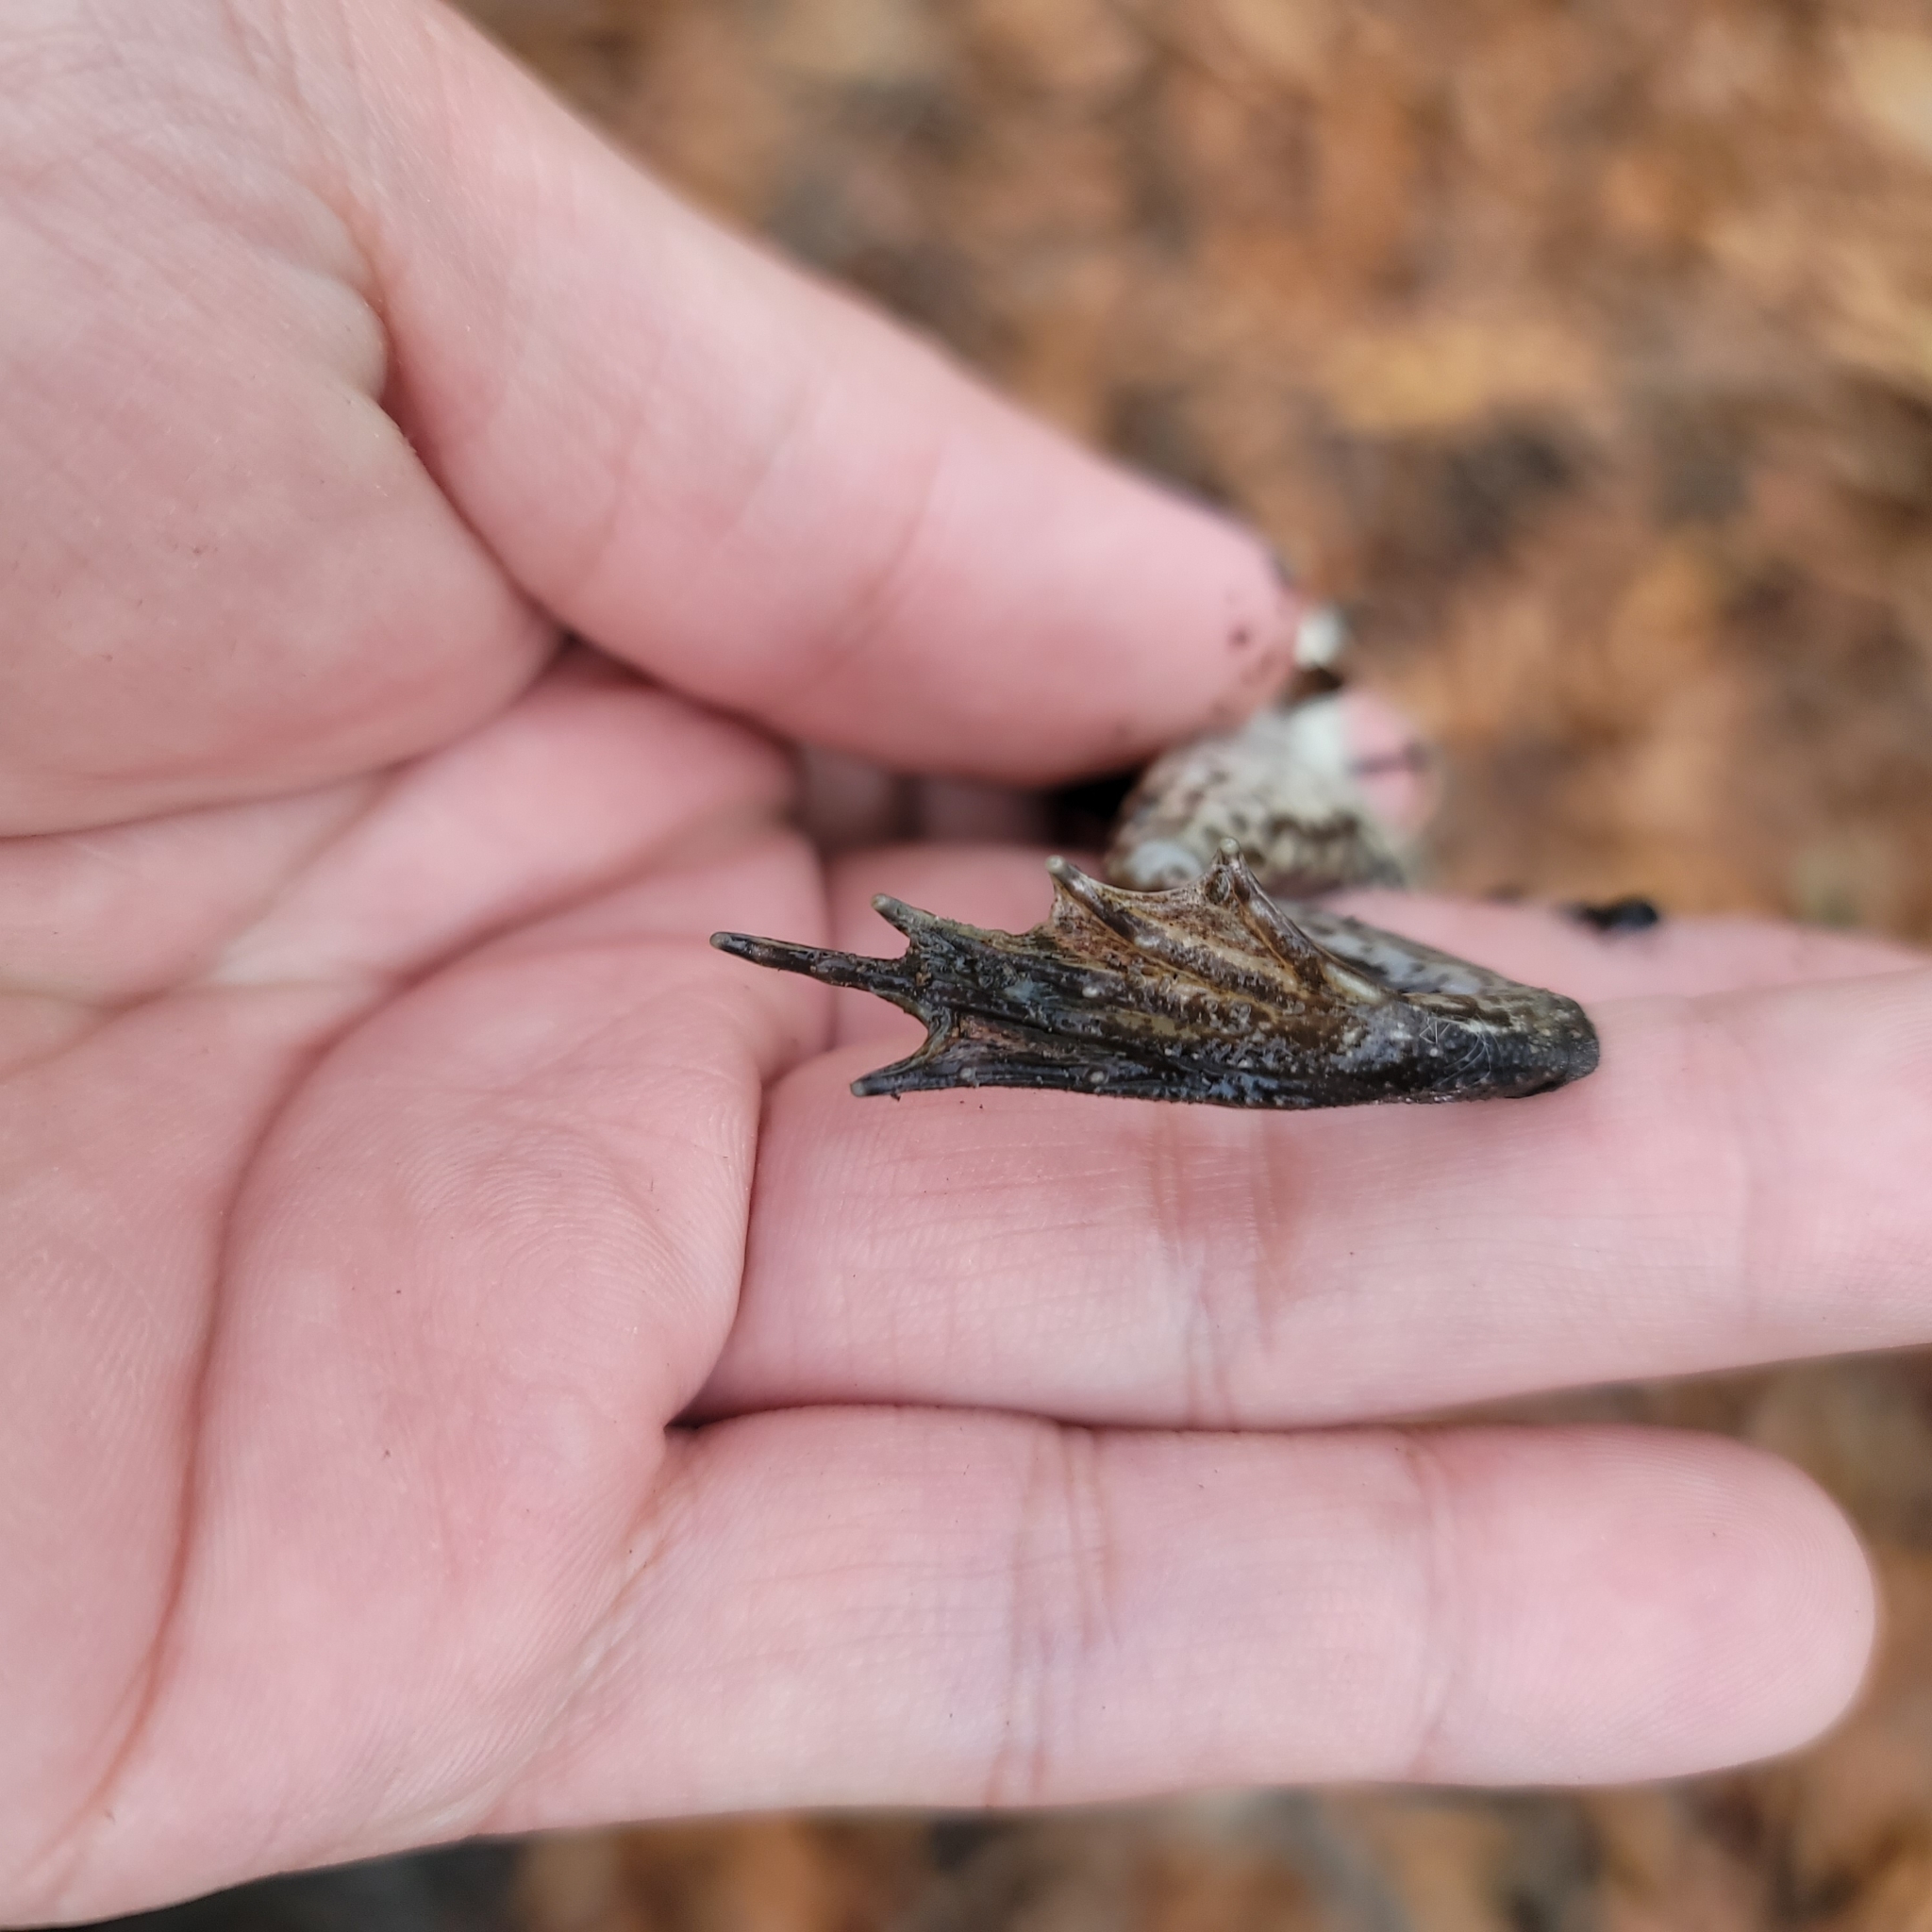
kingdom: Animalia
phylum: Chordata
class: Amphibia
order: Anura
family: Ranidae
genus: Lithobates
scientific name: Lithobates catesbeianus
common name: American bullfrog
